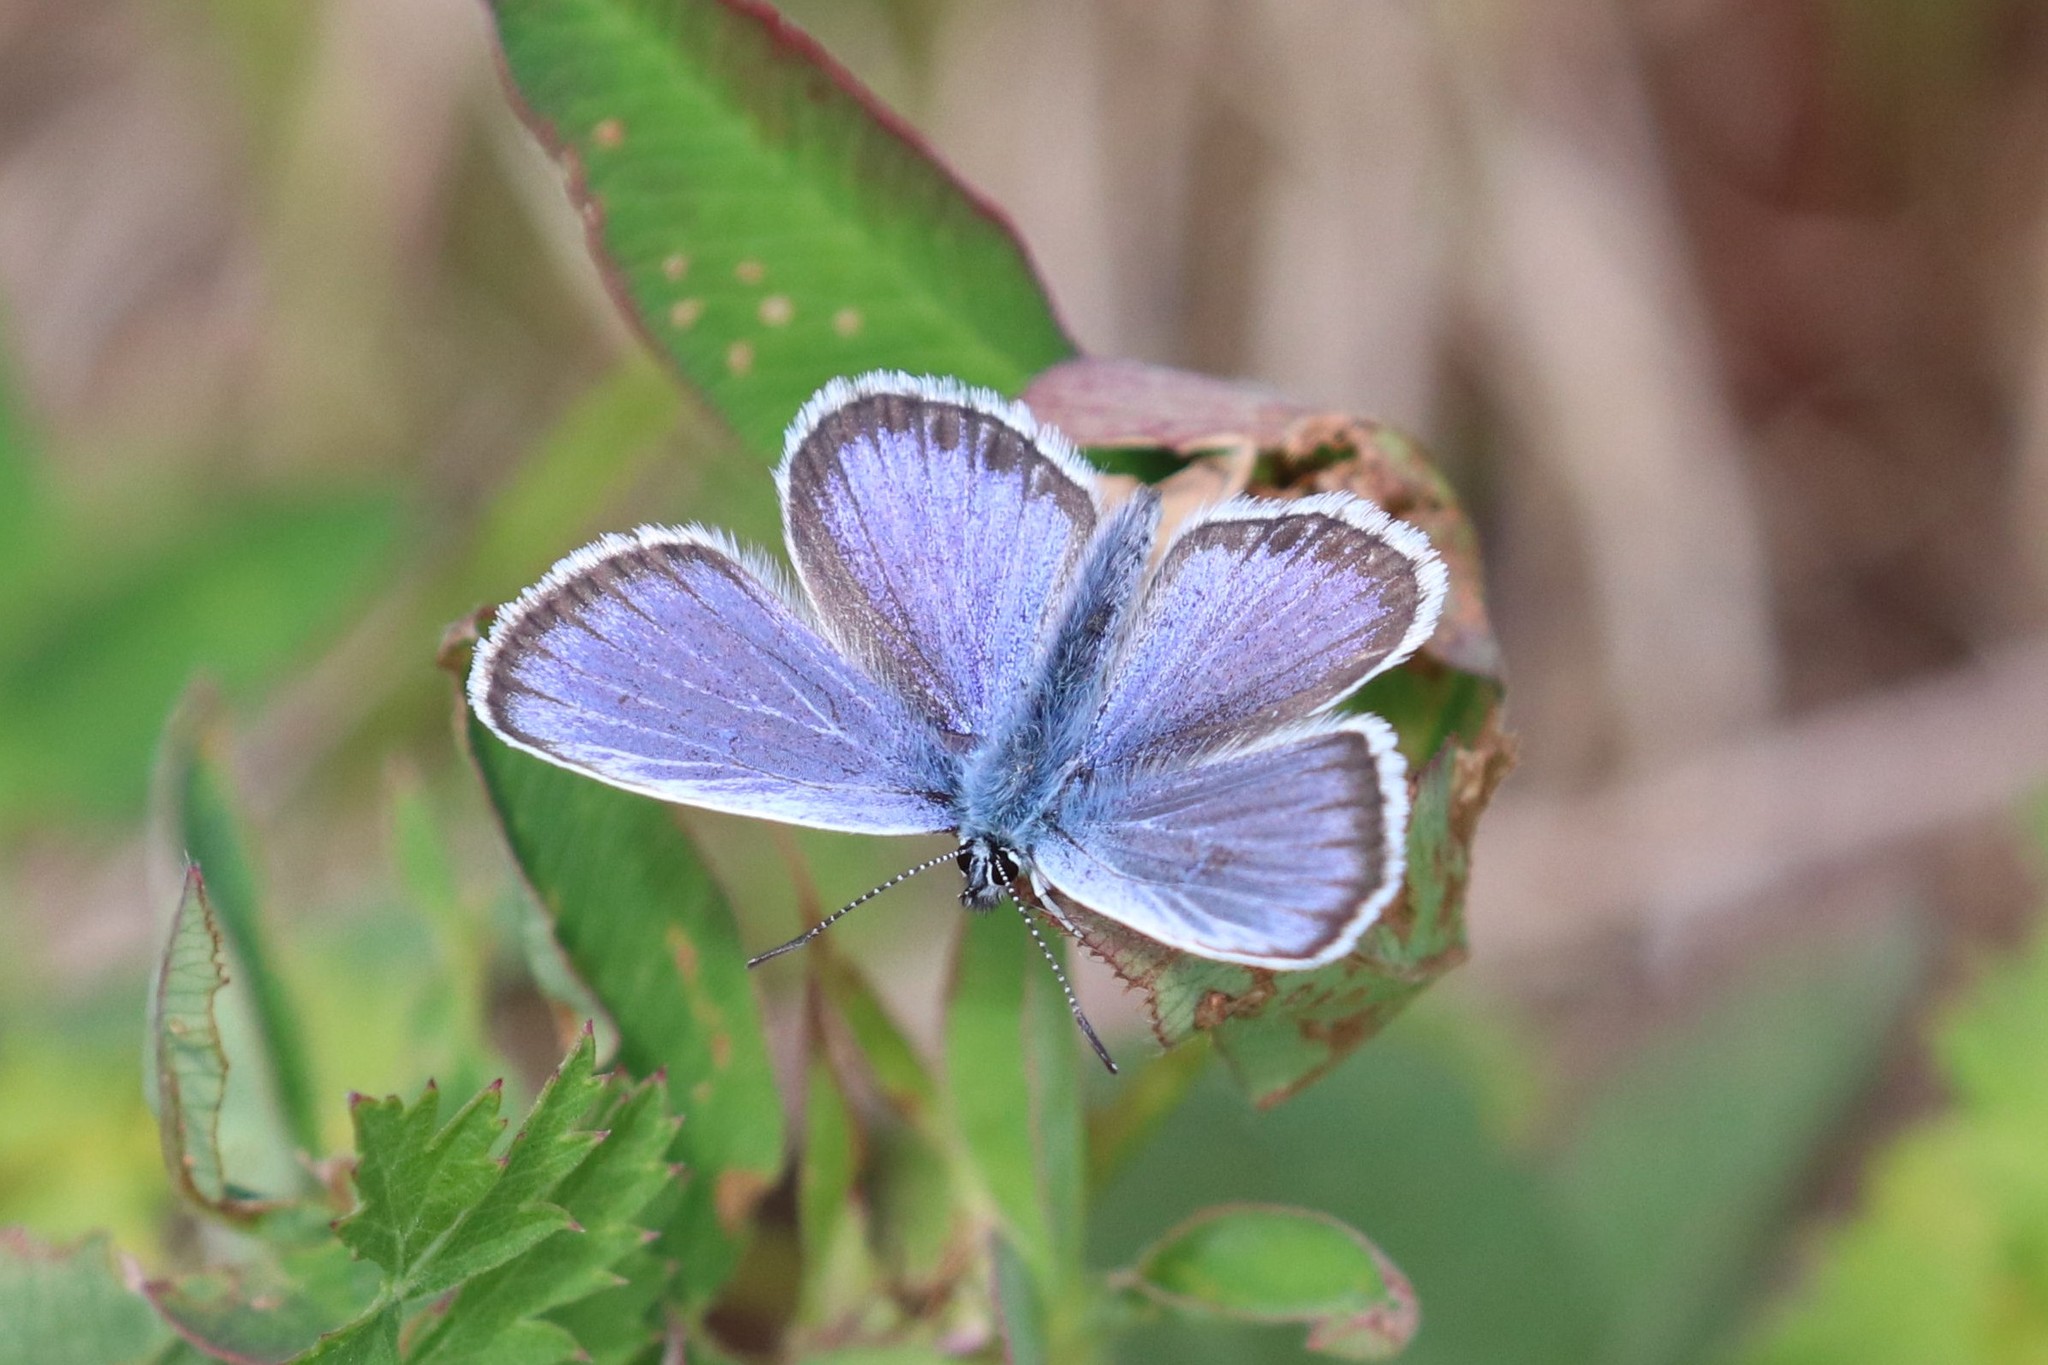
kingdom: Animalia
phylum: Arthropoda
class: Insecta
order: Lepidoptera
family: Lycaenidae
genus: Plebejus
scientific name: Plebejus argus
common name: Silver-studded blue
